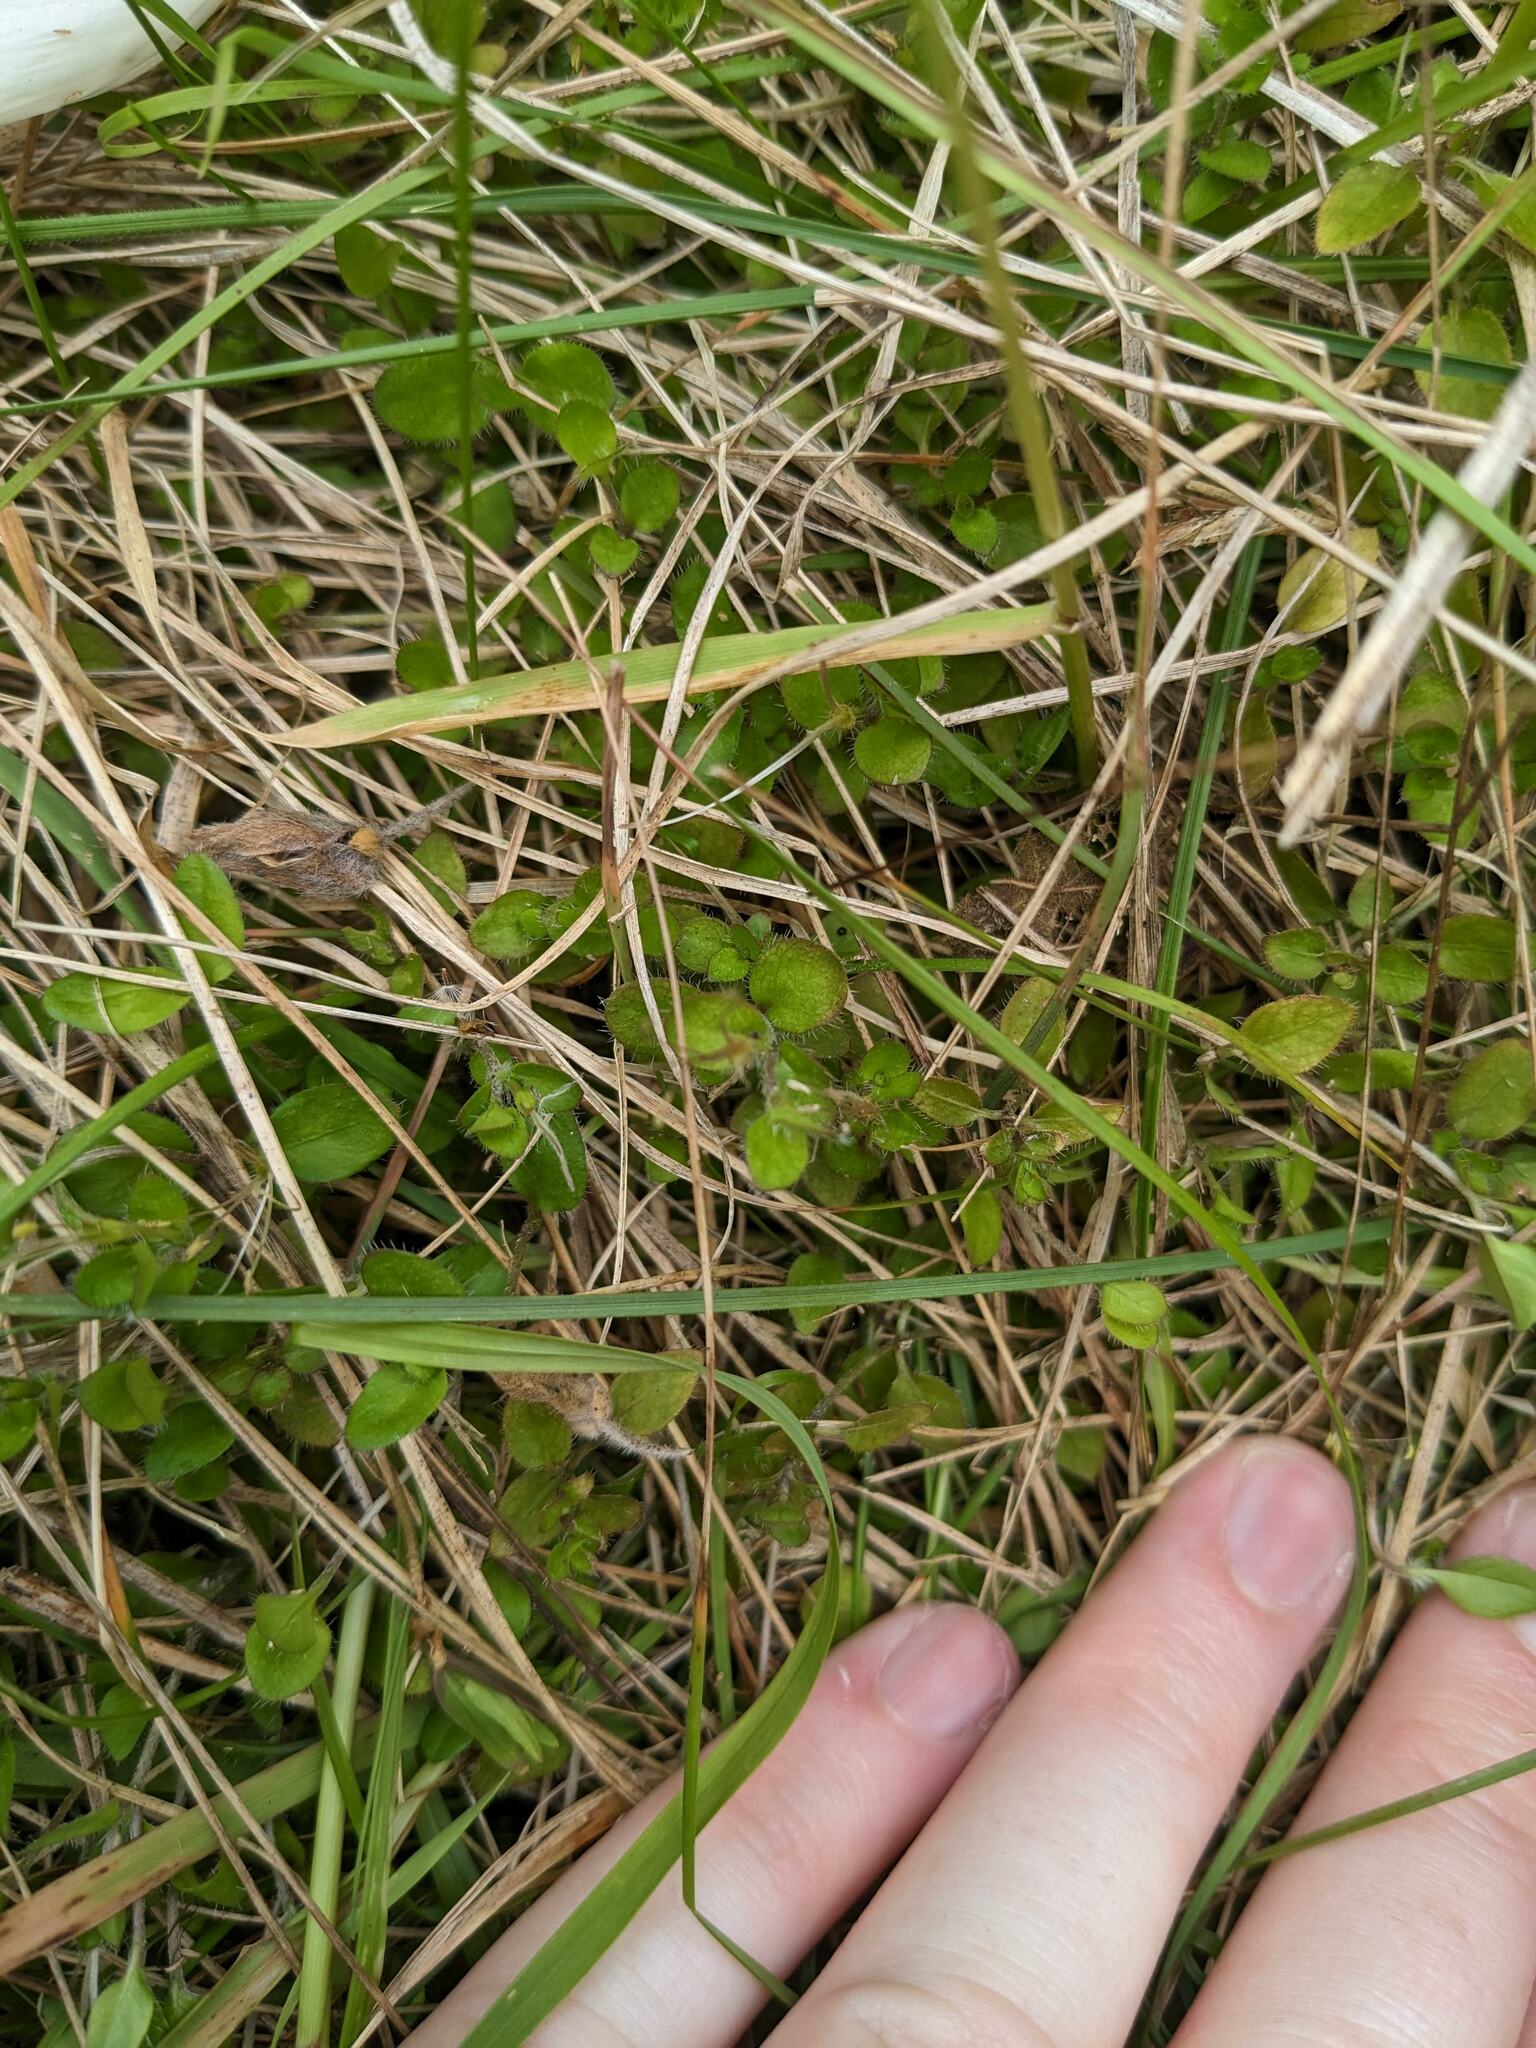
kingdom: Plantae
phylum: Tracheophyta
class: Magnoliopsida
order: Caryophyllales
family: Caryophyllaceae
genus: Stellaria
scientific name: Stellaria graminea
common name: Grass-like starwort
